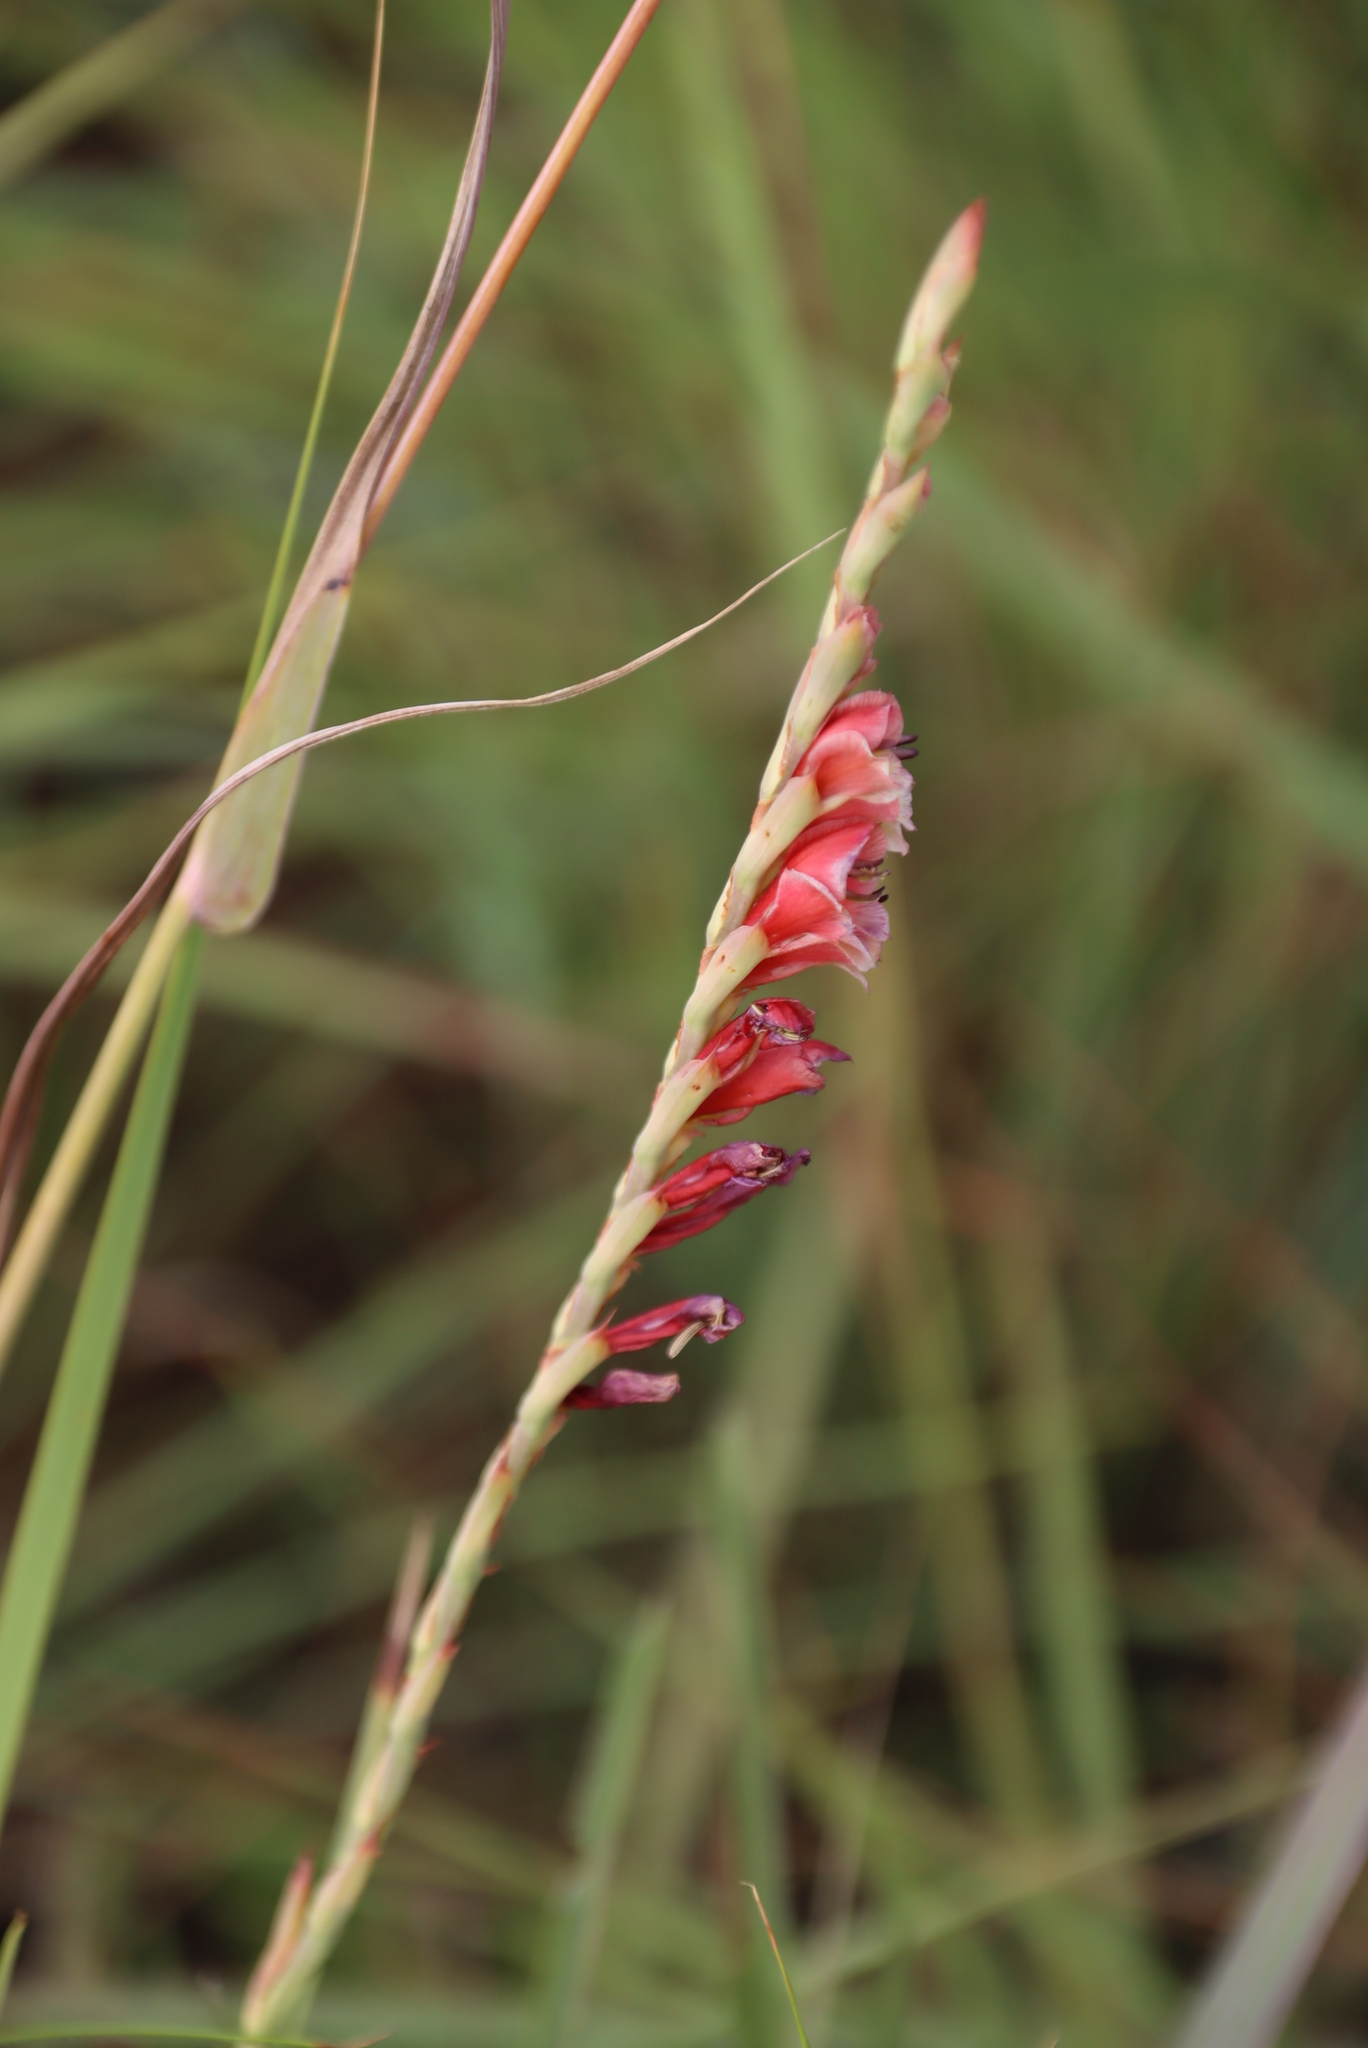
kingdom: Plantae
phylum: Tracheophyta
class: Liliopsida
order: Asparagales
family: Iridaceae
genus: Gladiolus
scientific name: Gladiolus densiflorus
